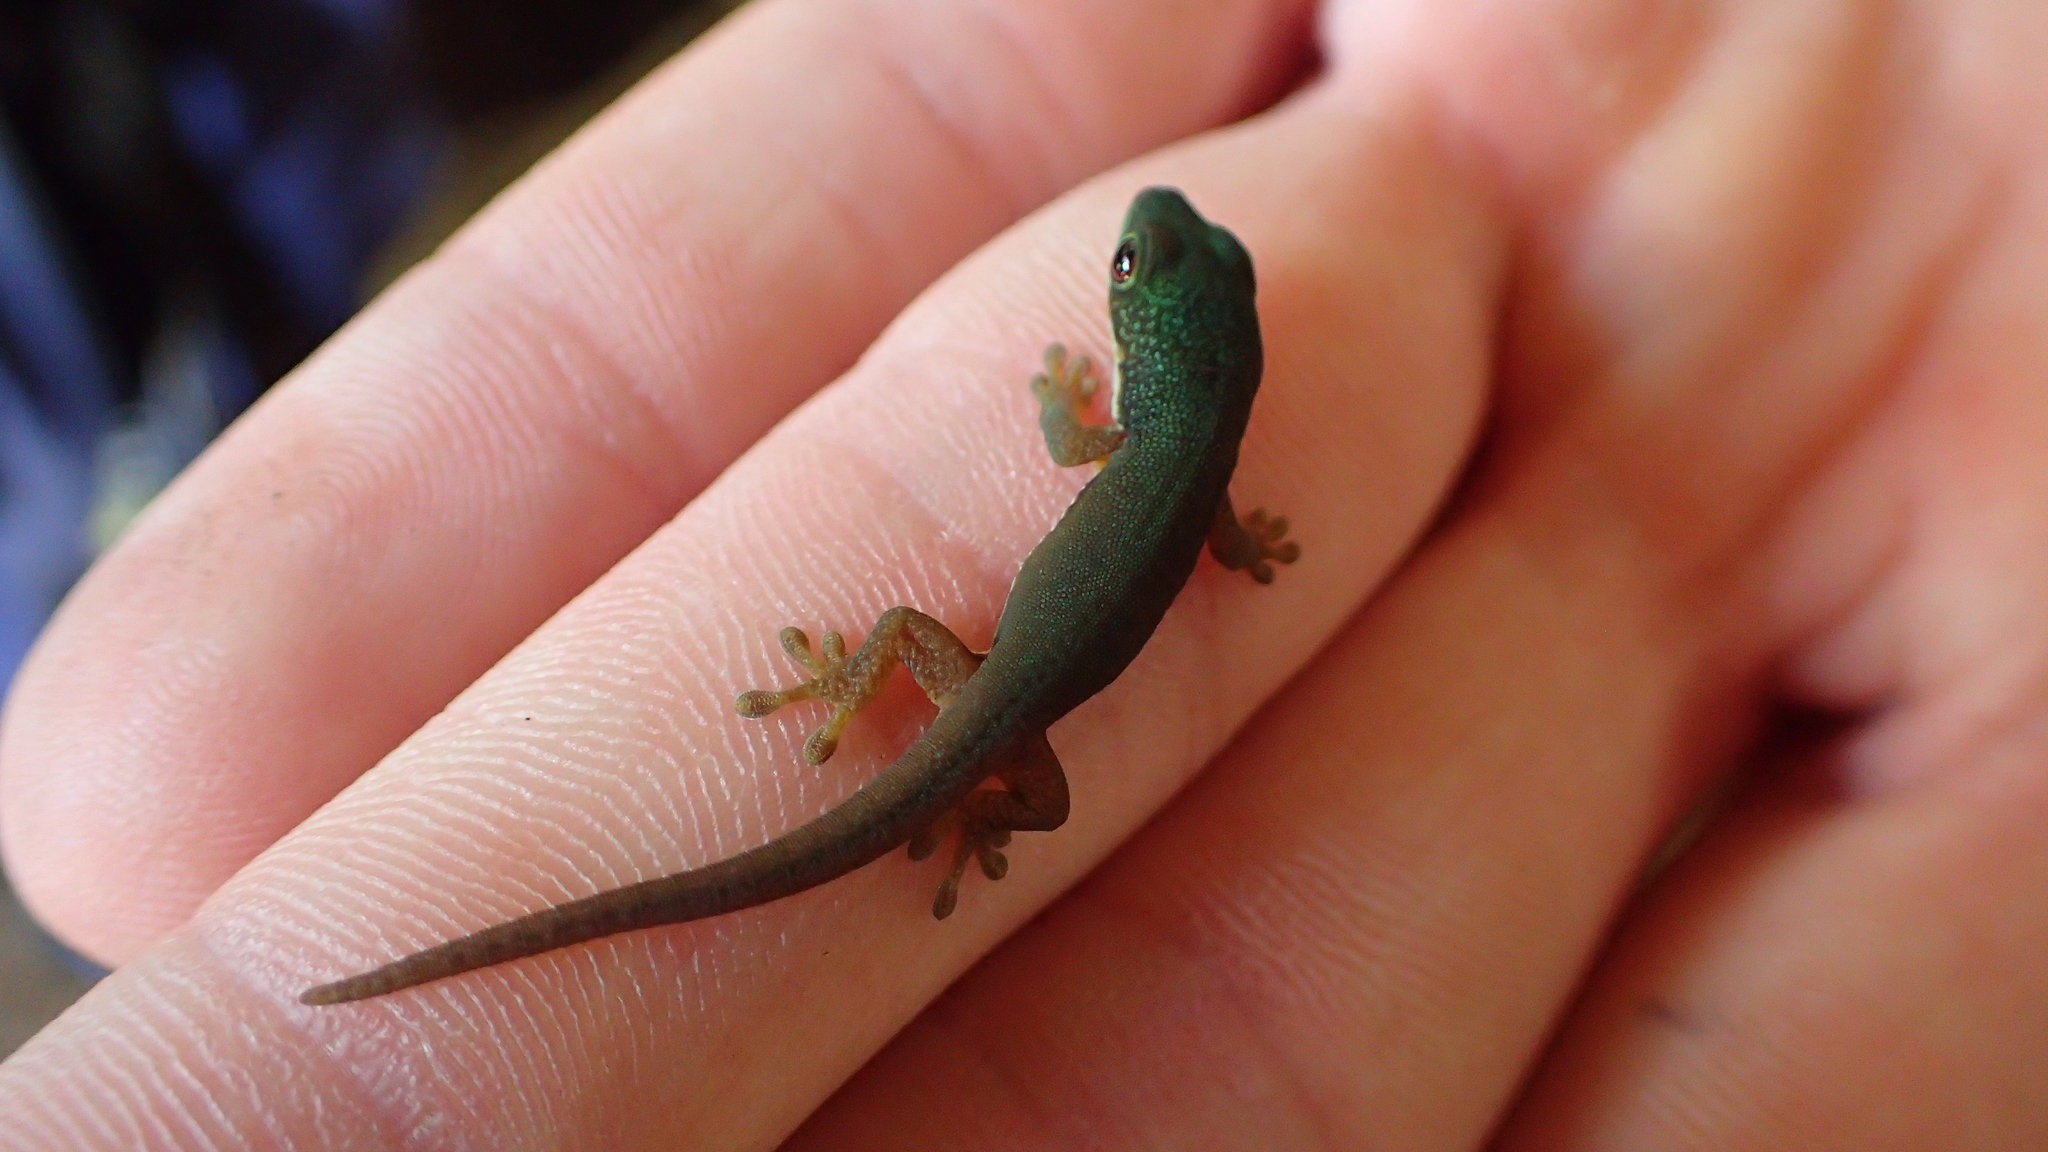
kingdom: Animalia
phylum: Chordata
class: Squamata
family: Gekkonidae
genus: Phelsuma
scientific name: Phelsuma lineata
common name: Lined day gecko
